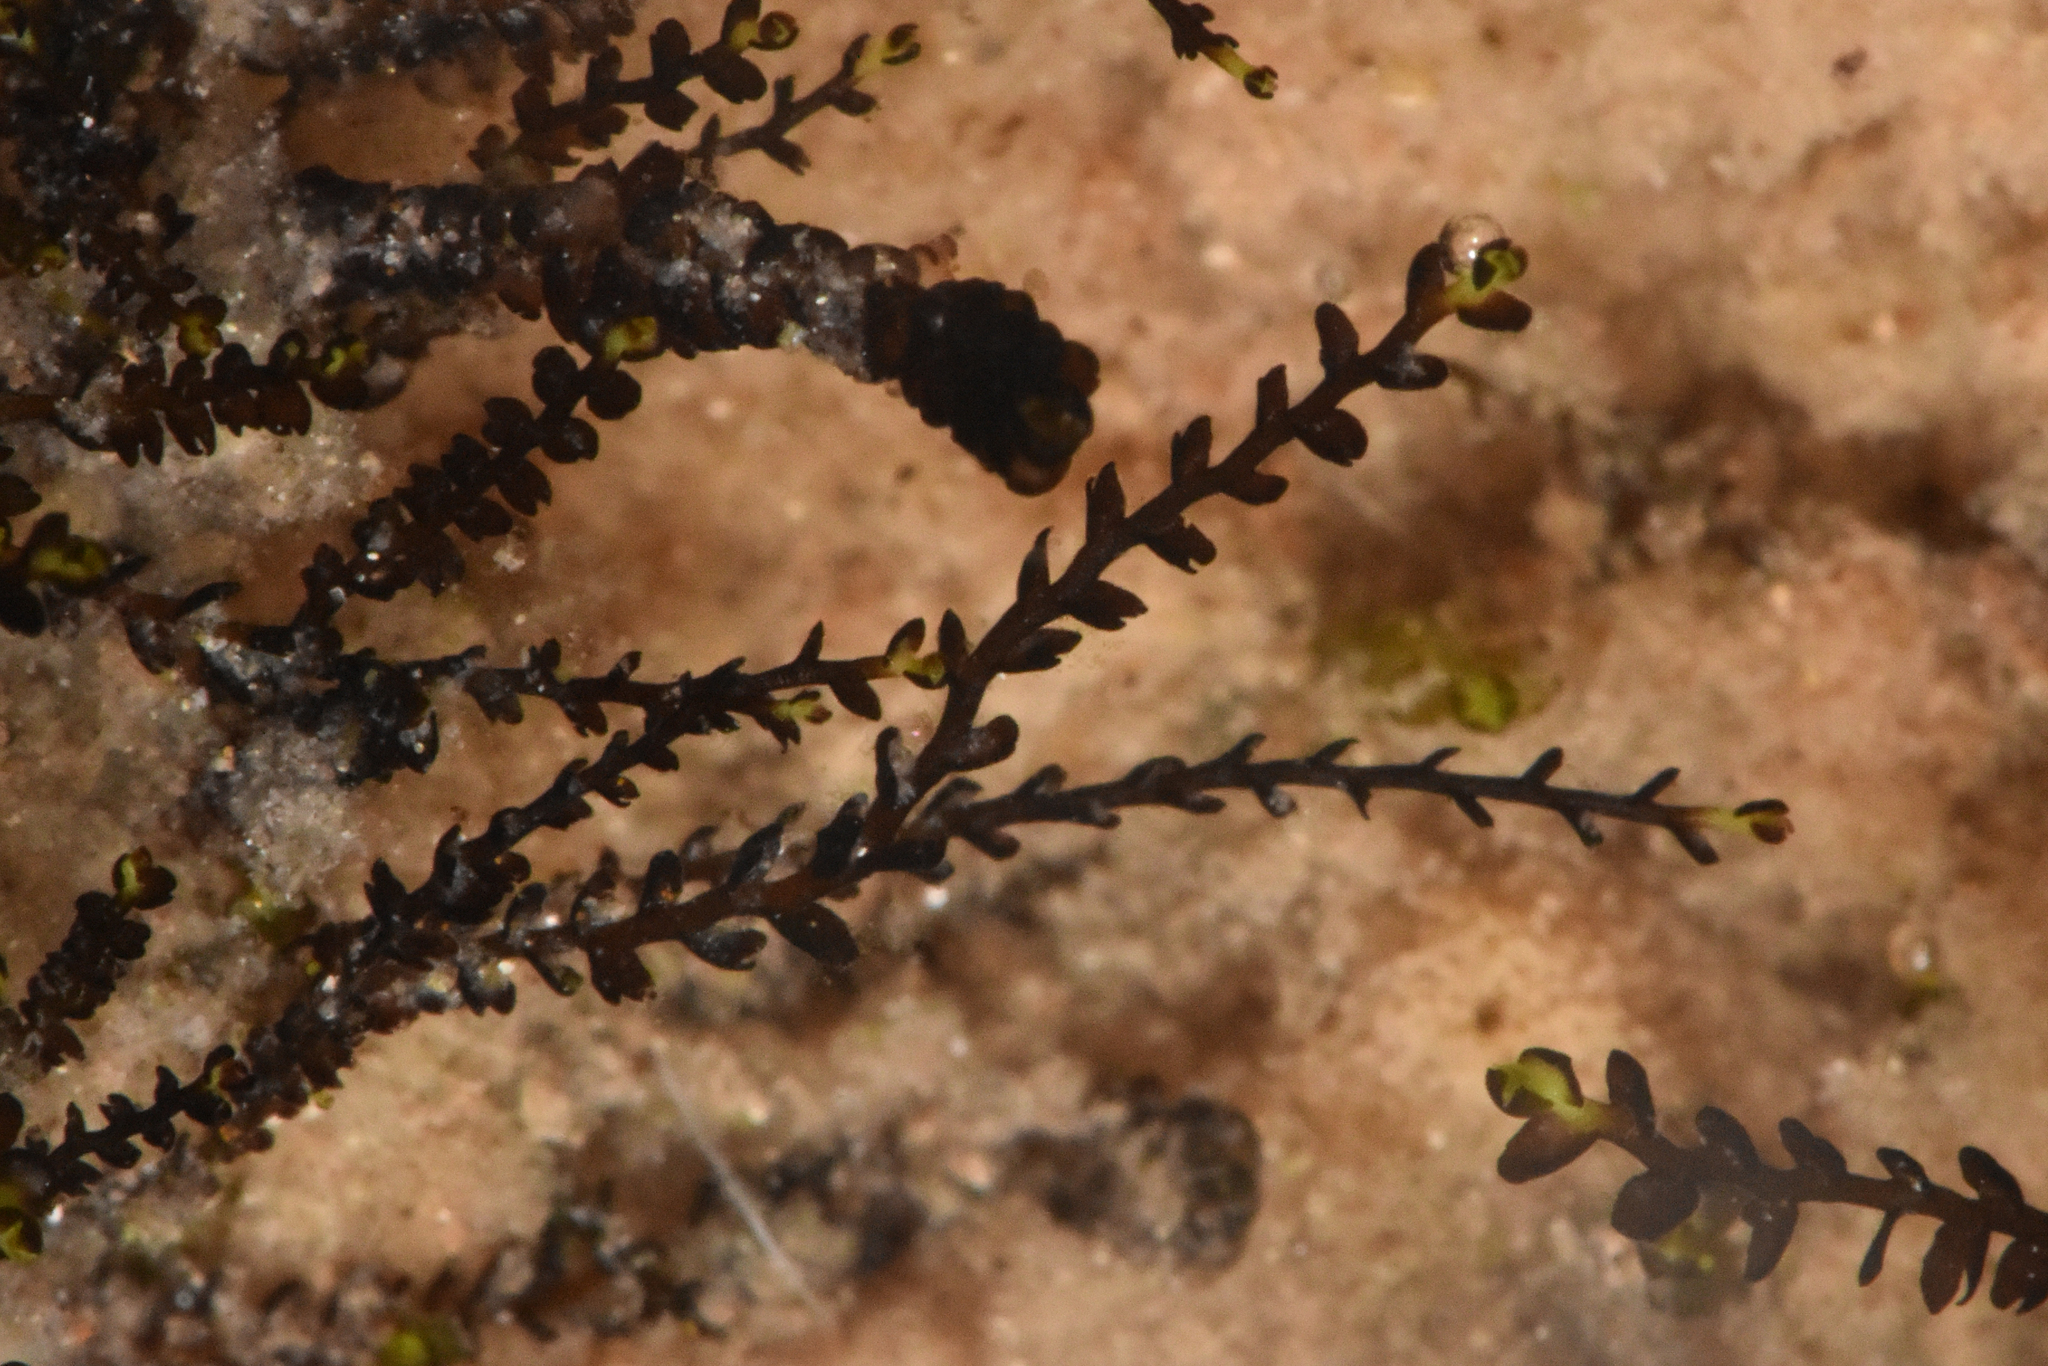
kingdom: Plantae
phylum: Marchantiophyta
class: Jungermanniopsida
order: Jungermanniales
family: Anastrophyllaceae
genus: Gymnocolea
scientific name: Gymnocolea inflata
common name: Inflated notchwort
